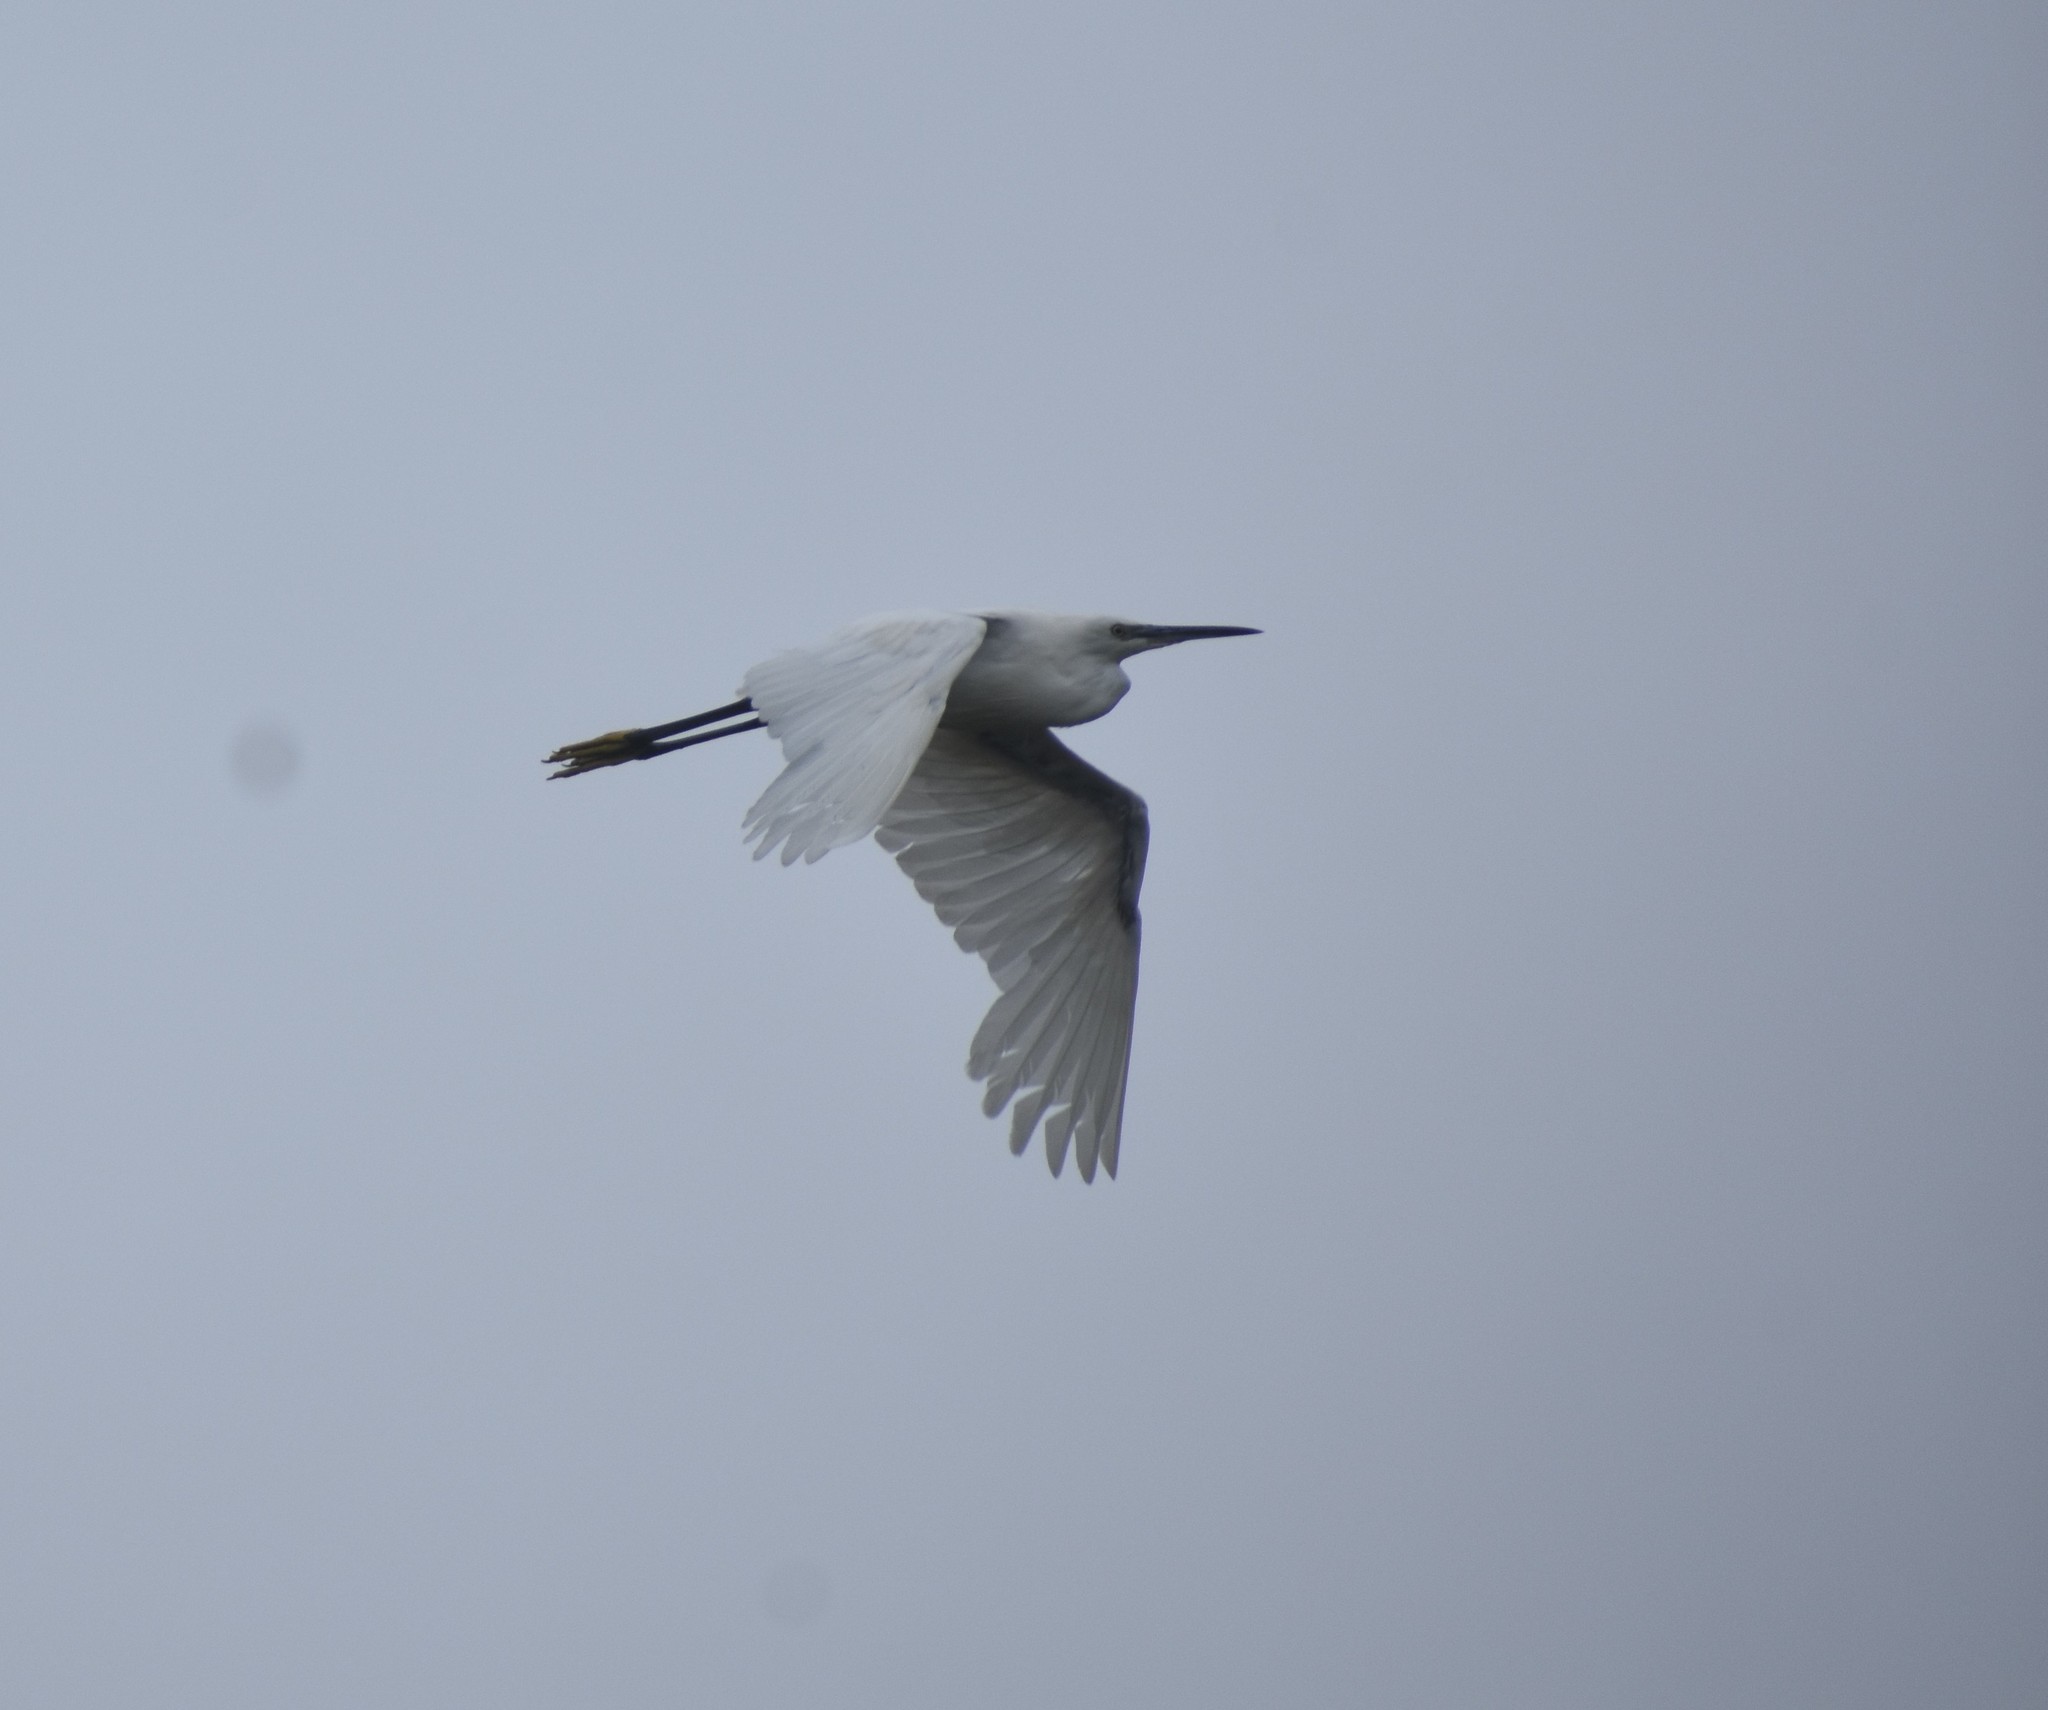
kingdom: Animalia
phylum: Chordata
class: Aves
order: Pelecaniformes
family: Ardeidae
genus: Egretta
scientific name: Egretta garzetta
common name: Little egret
